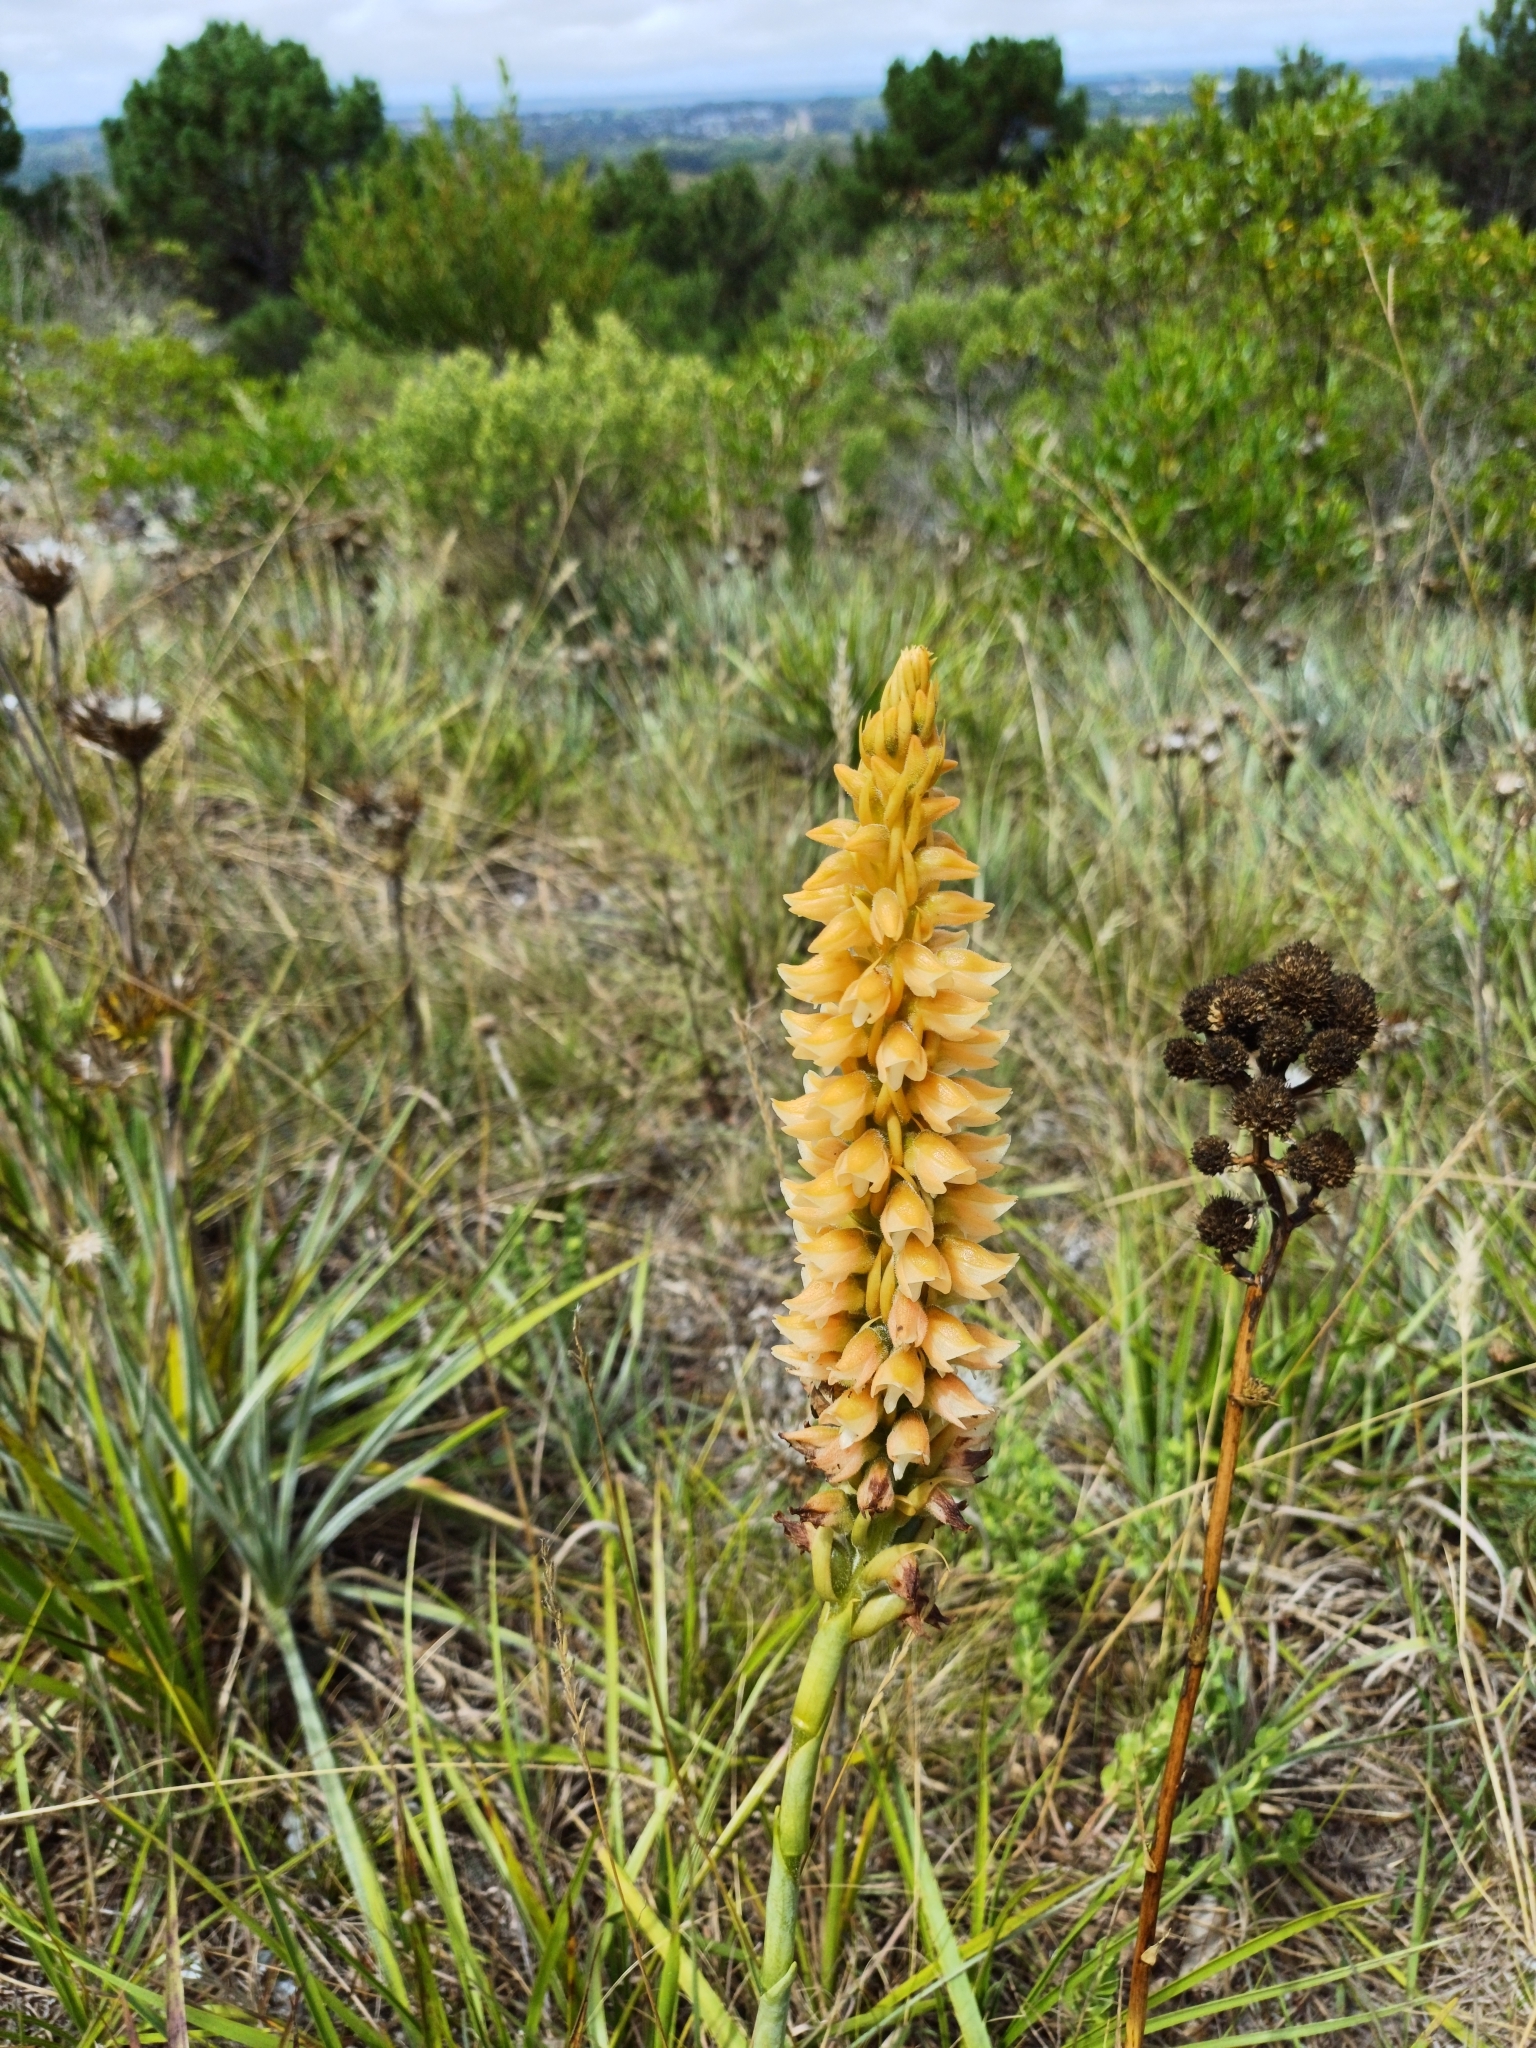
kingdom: Plantae
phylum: Tracheophyta
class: Liliopsida
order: Asparagales
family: Orchidaceae
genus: Skeptrostachys
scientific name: Skeptrostachys gigantea
